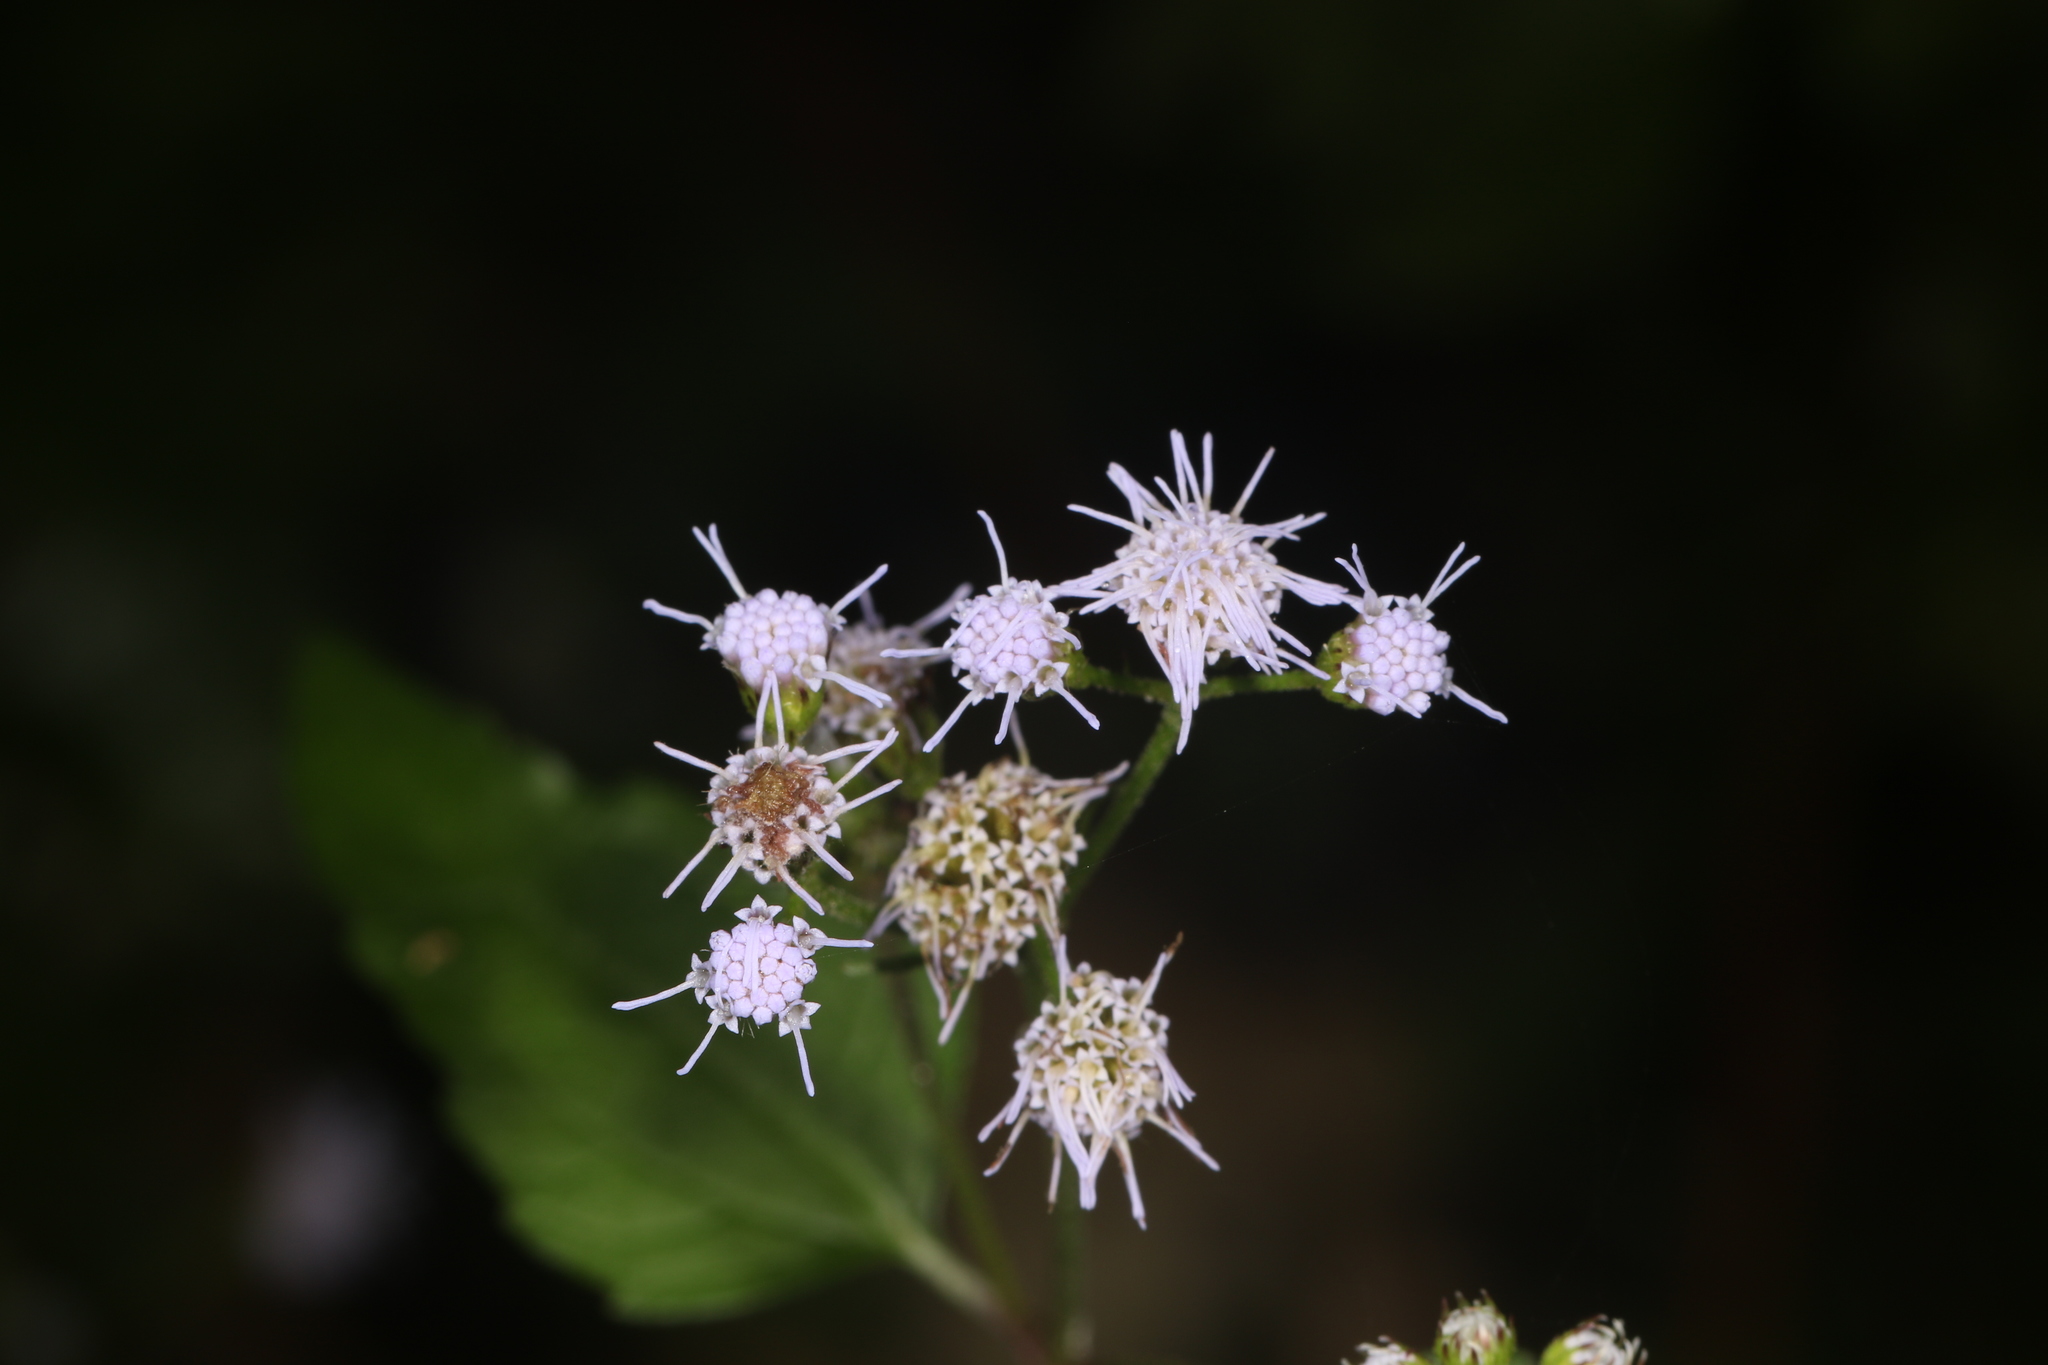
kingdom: Plantae
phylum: Tracheophyta
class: Magnoliopsida
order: Asterales
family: Asteraceae
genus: Conoclinium
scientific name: Conoclinium coelestinum
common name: Blue mistflower
